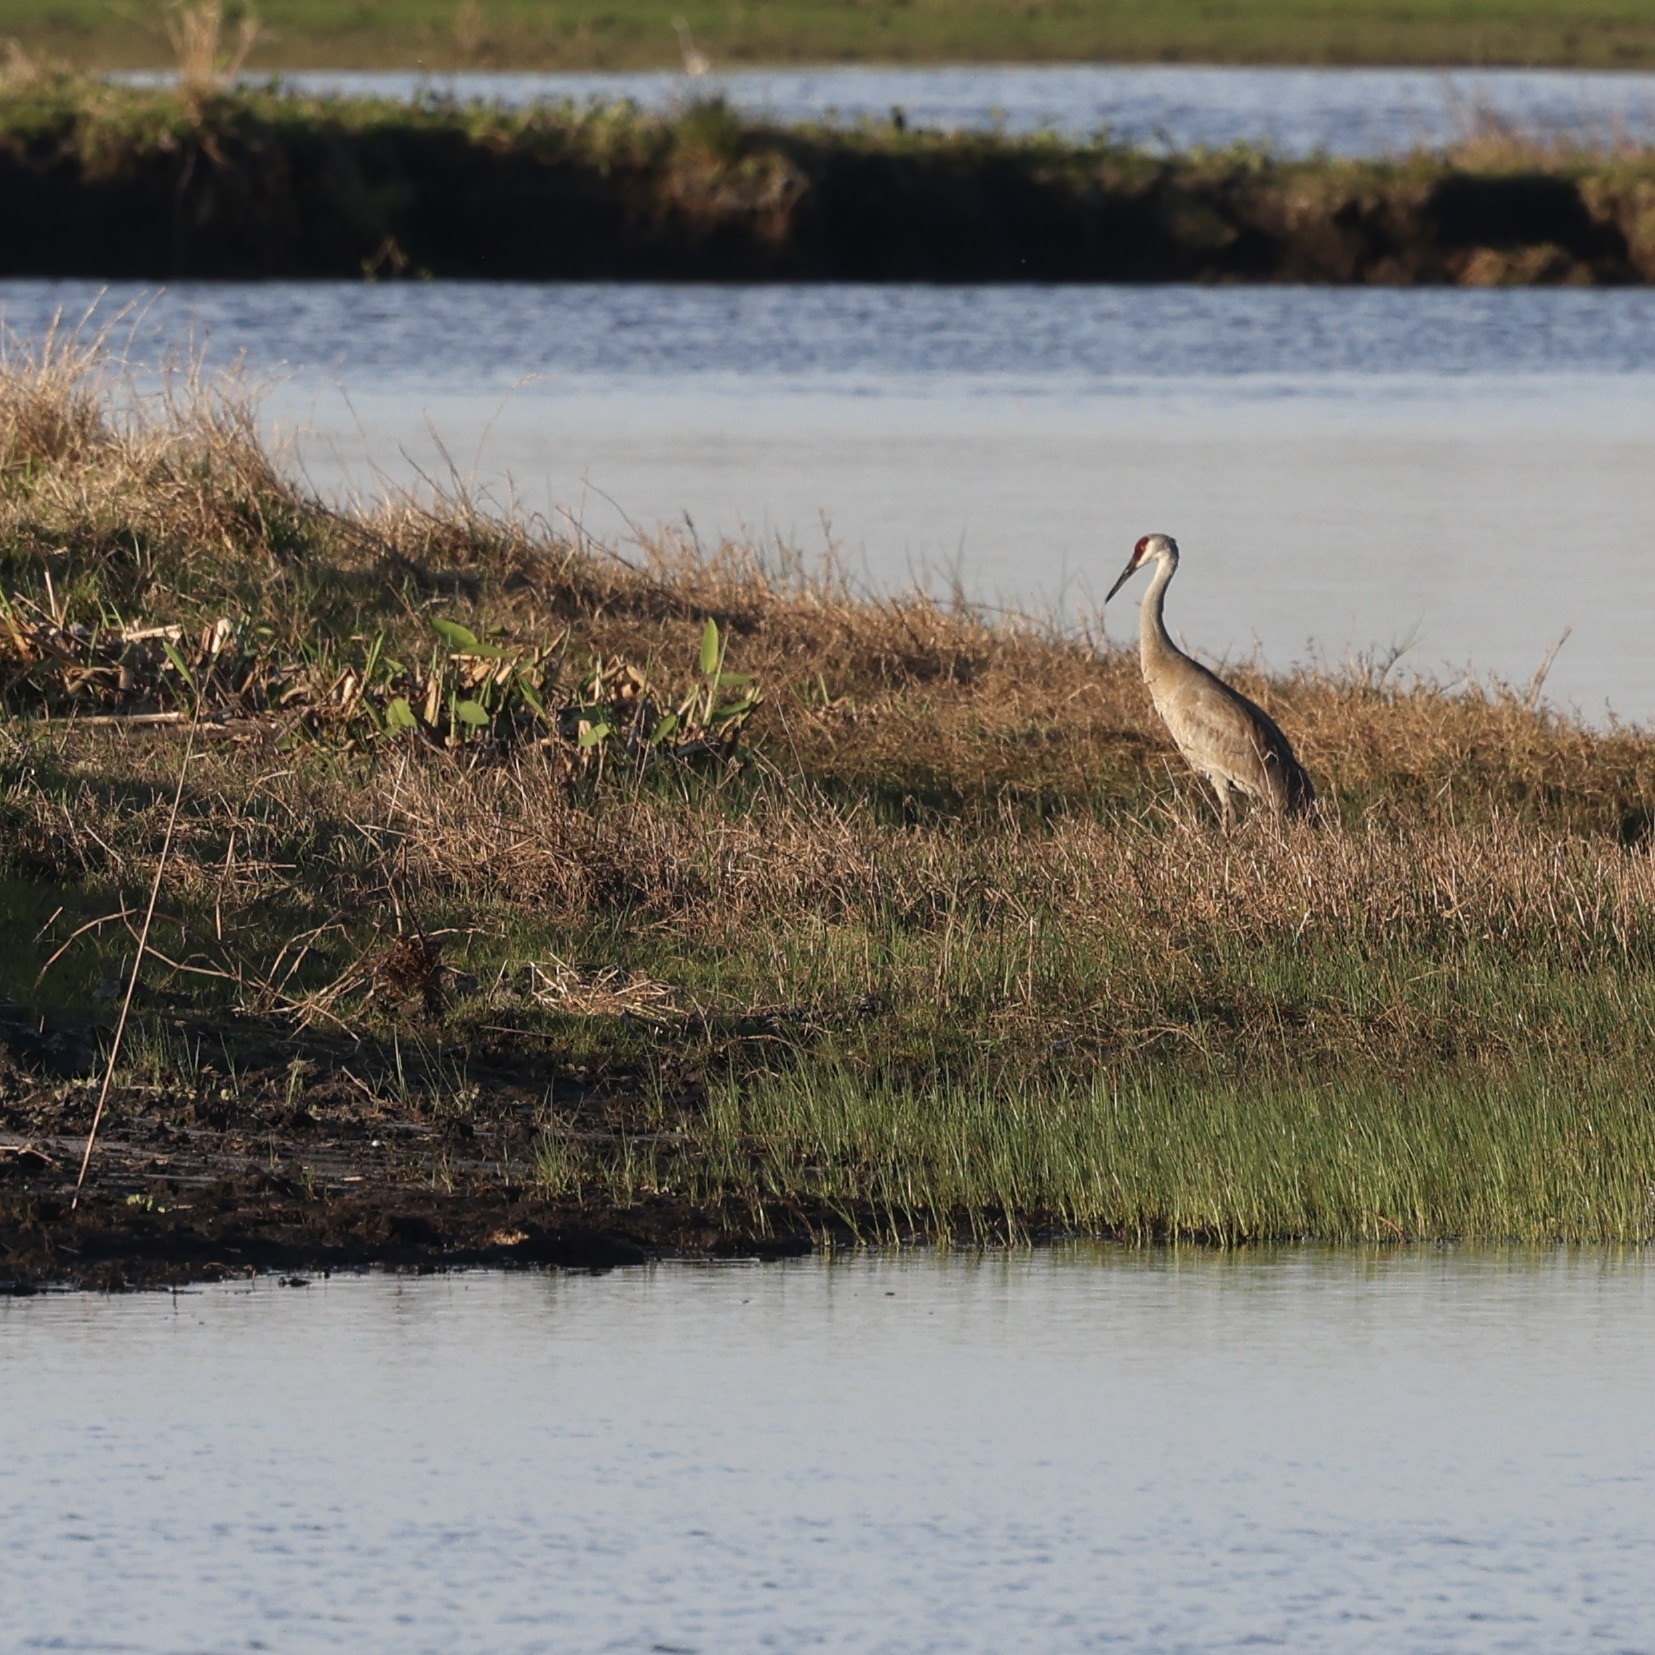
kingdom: Animalia
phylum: Chordata
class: Aves
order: Gruiformes
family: Gruidae
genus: Grus
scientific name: Grus canadensis
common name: Sandhill crane
